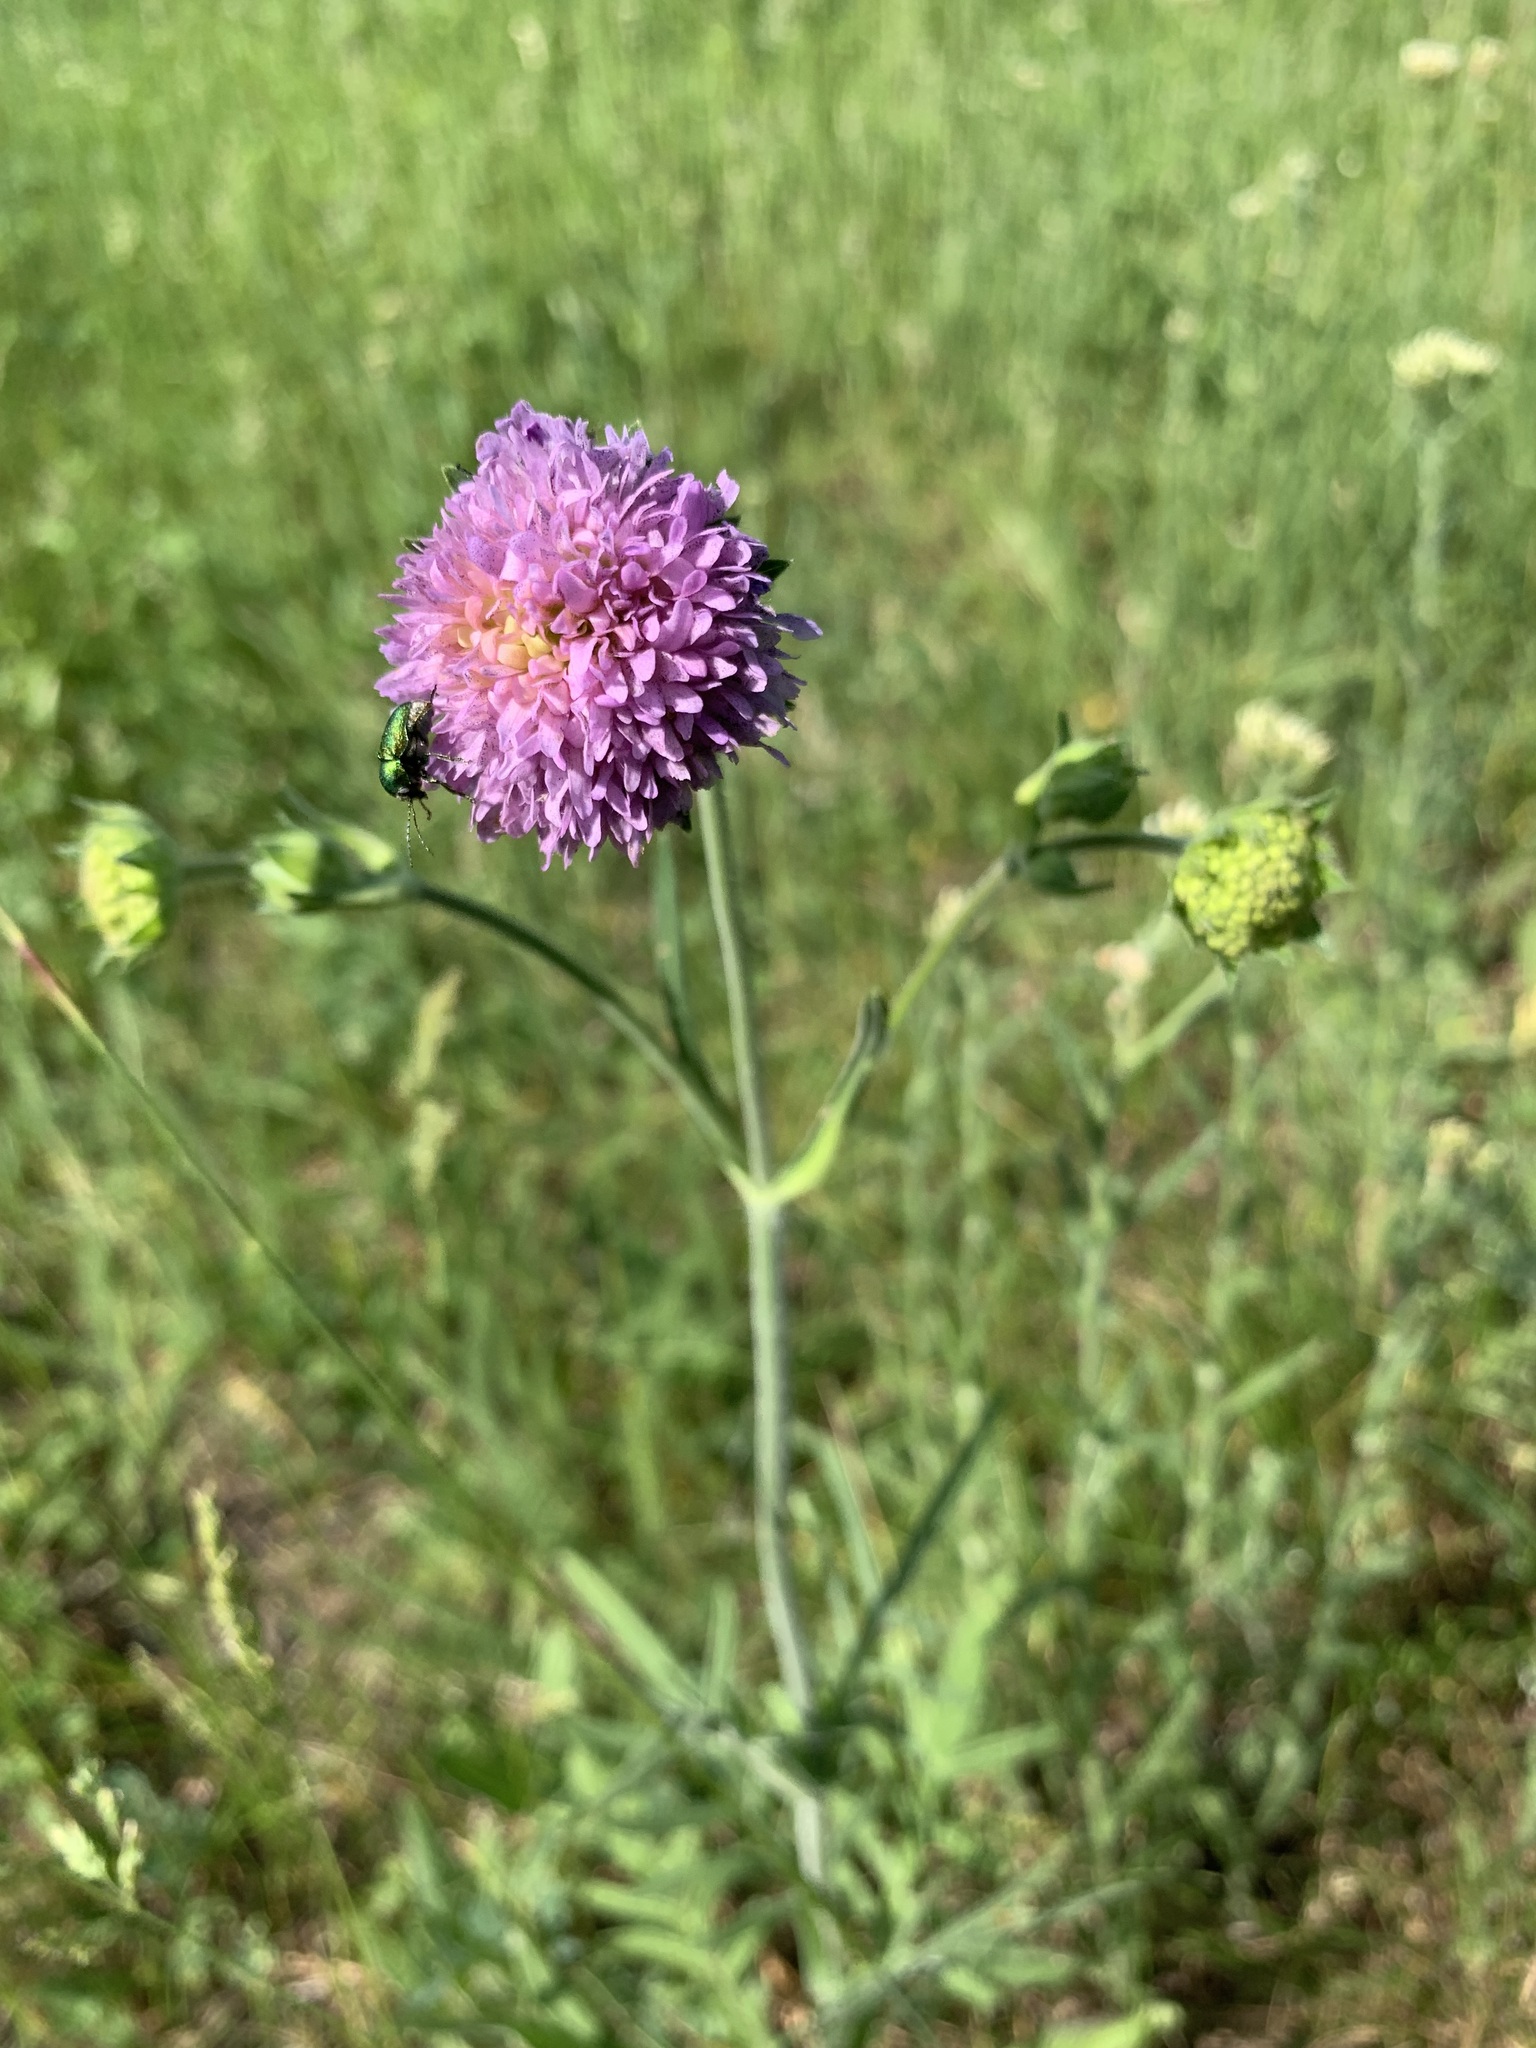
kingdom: Plantae
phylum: Tracheophyta
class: Magnoliopsida
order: Dipsacales
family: Caprifoliaceae
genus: Knautia
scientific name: Knautia arvensis
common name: Field scabiosa
